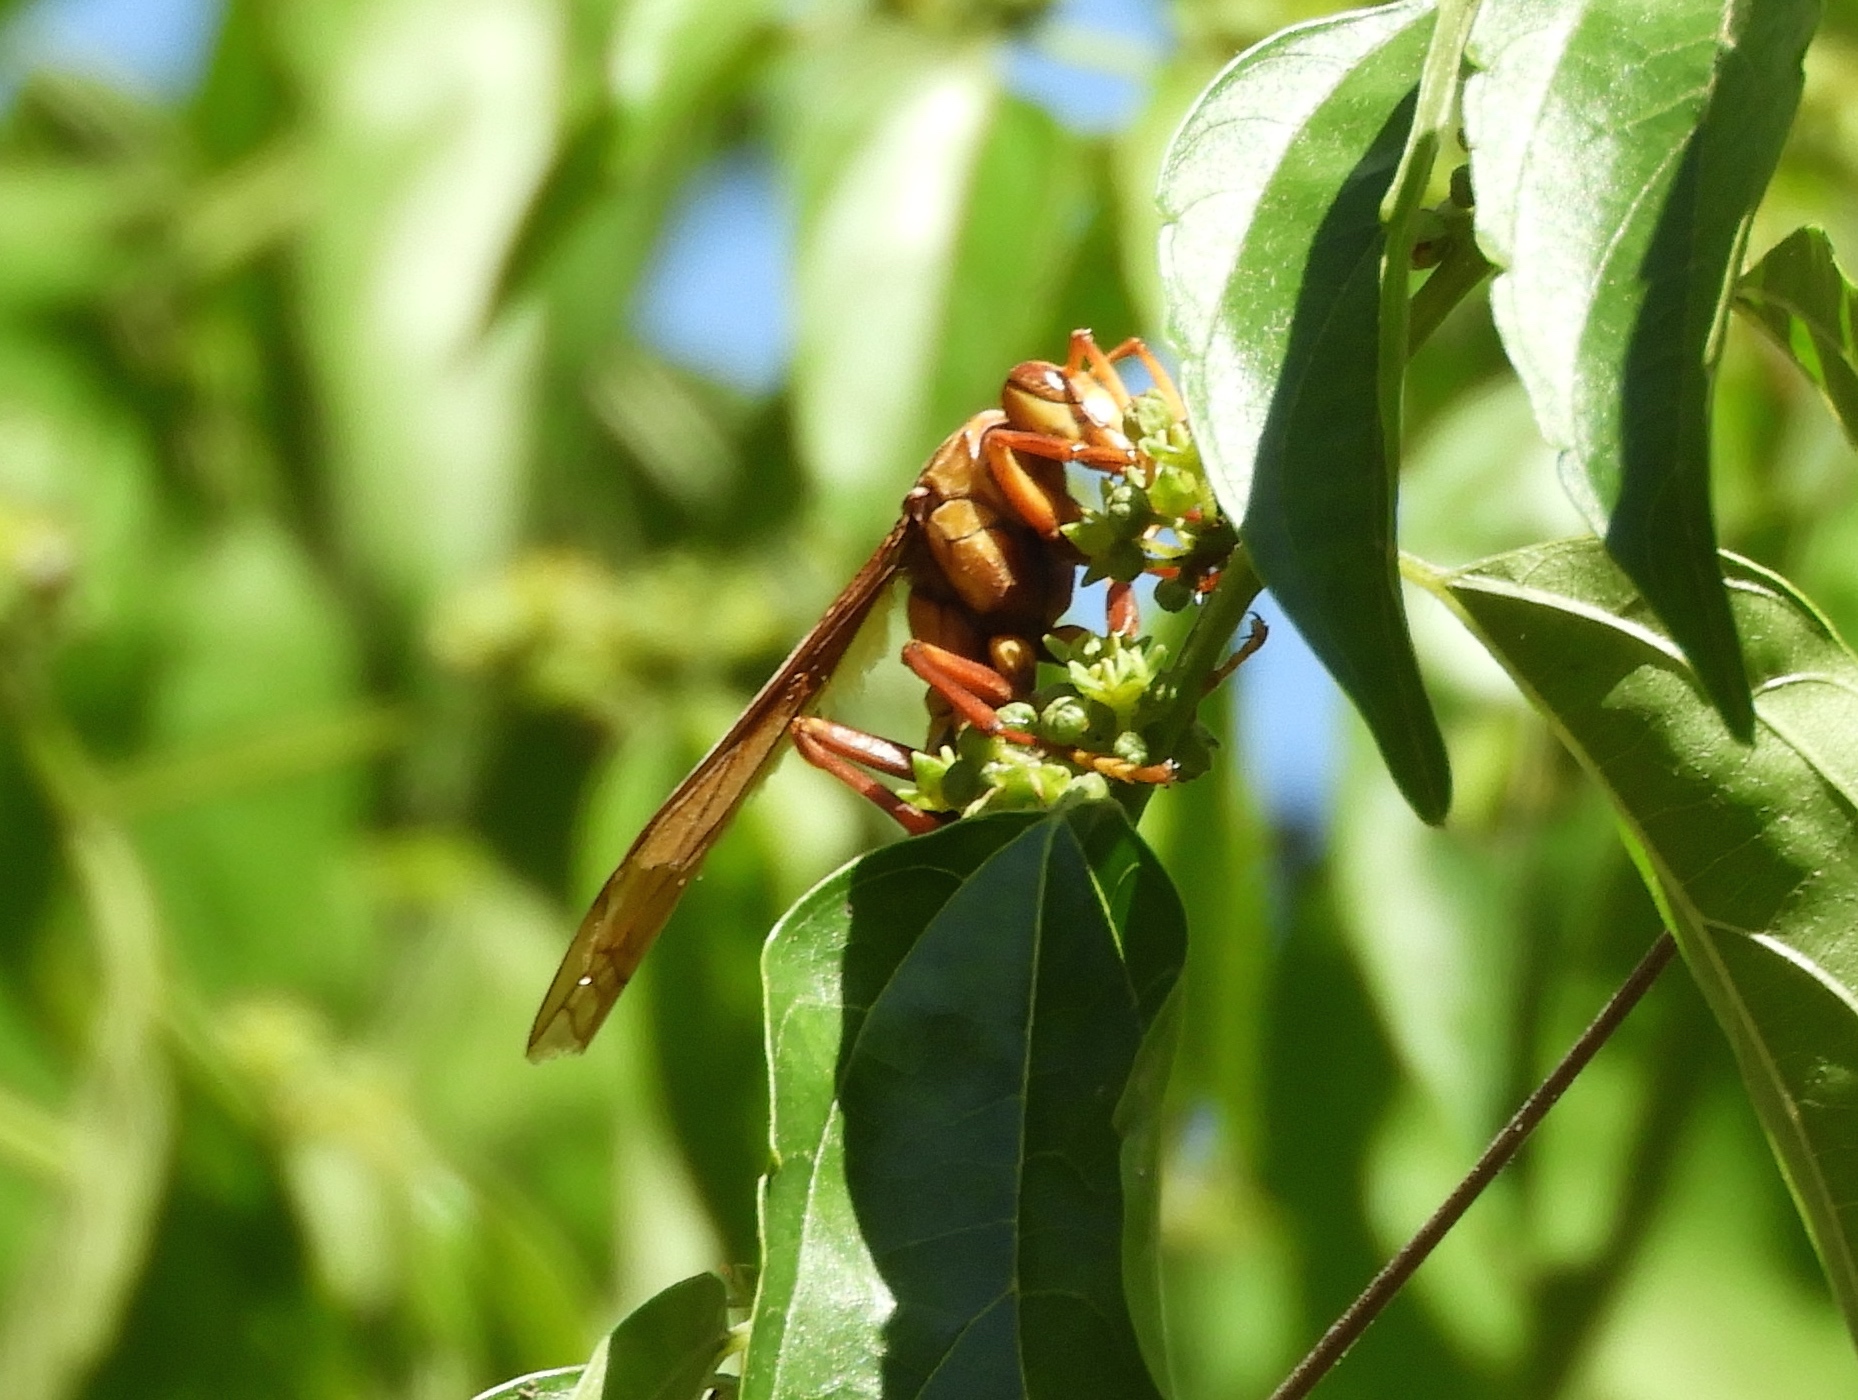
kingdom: Animalia
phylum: Arthropoda
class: Insecta
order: Hymenoptera
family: Eumenidae
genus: Polistes
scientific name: Polistes carnifex
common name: Paper wasp
